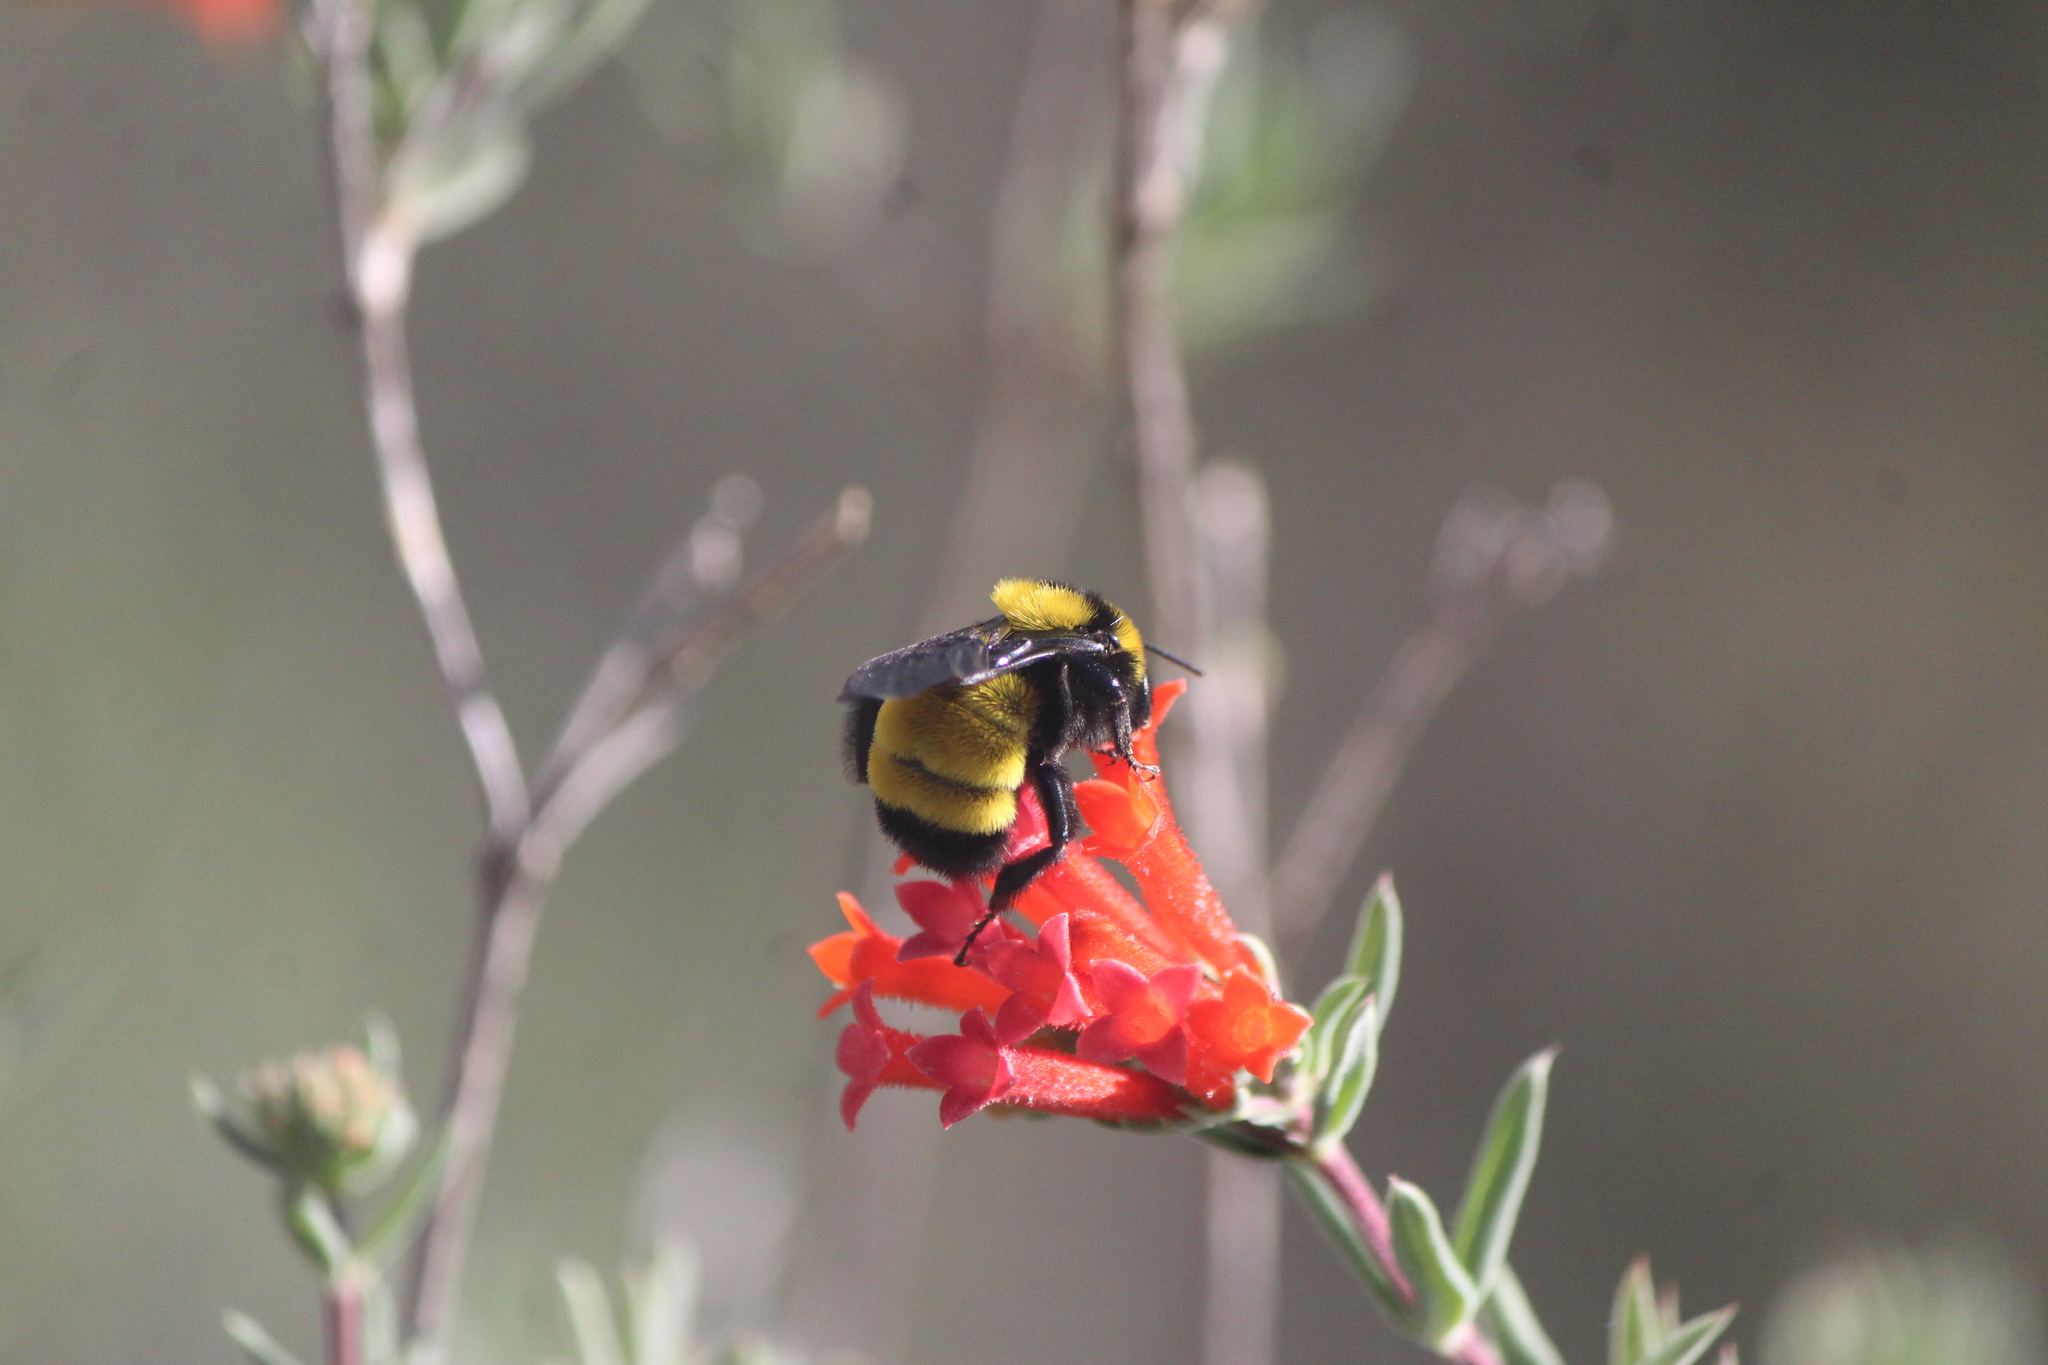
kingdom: Animalia
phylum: Arthropoda
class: Insecta
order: Hymenoptera
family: Apidae
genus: Bombus
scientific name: Bombus sonorus
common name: Sonoran bumble bee
